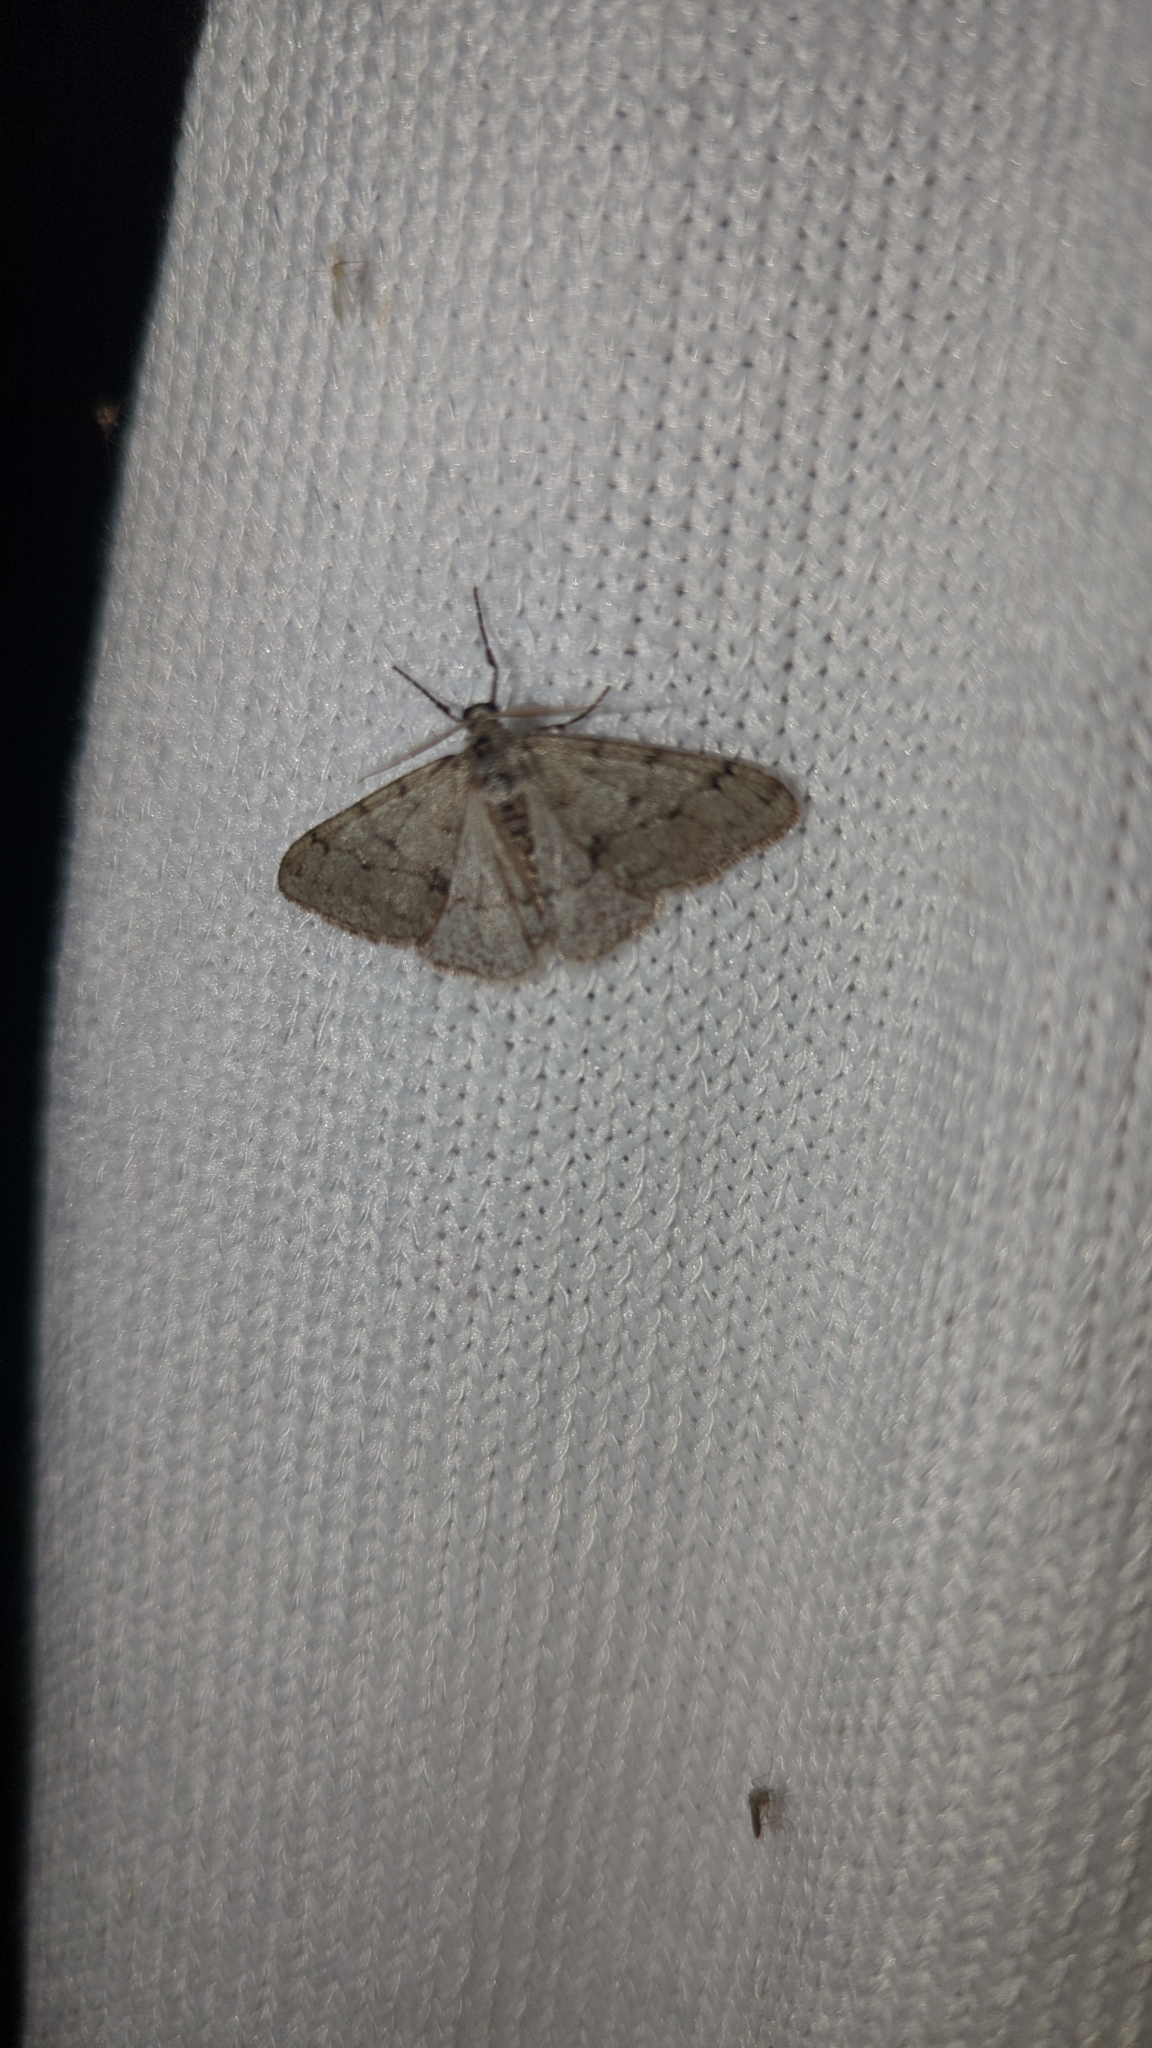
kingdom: Animalia
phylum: Arthropoda
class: Insecta
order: Lepidoptera
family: Geometridae
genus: Phigalia
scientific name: Phigalia strigataria
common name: Small phigalia
